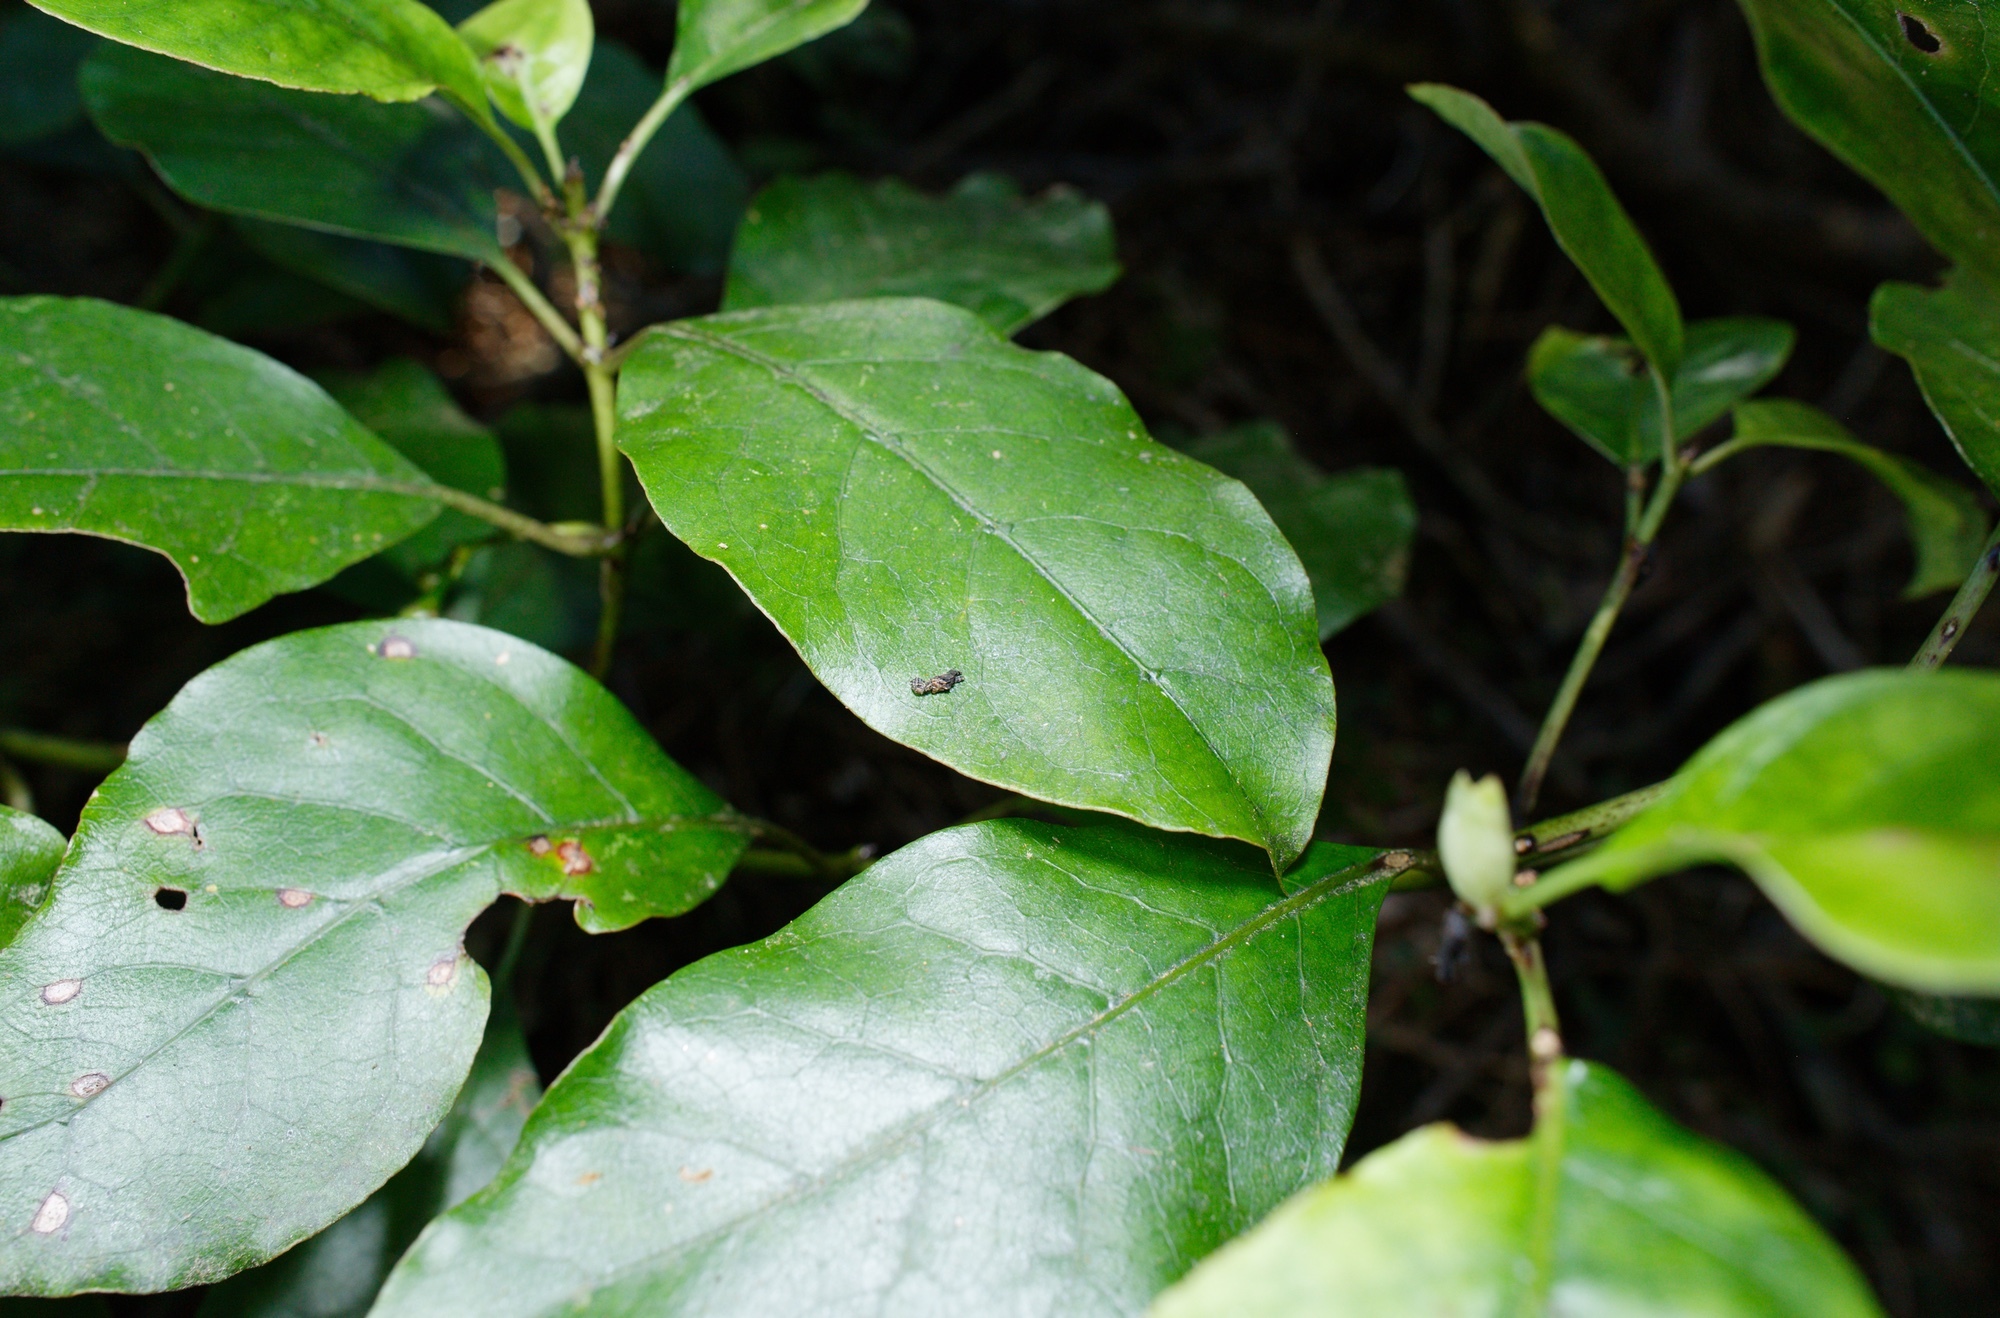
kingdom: Animalia
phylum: Arthropoda
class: Insecta
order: Coleoptera
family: Curculionidae
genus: Stephanorhynchus
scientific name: Stephanorhynchus lawsoni
